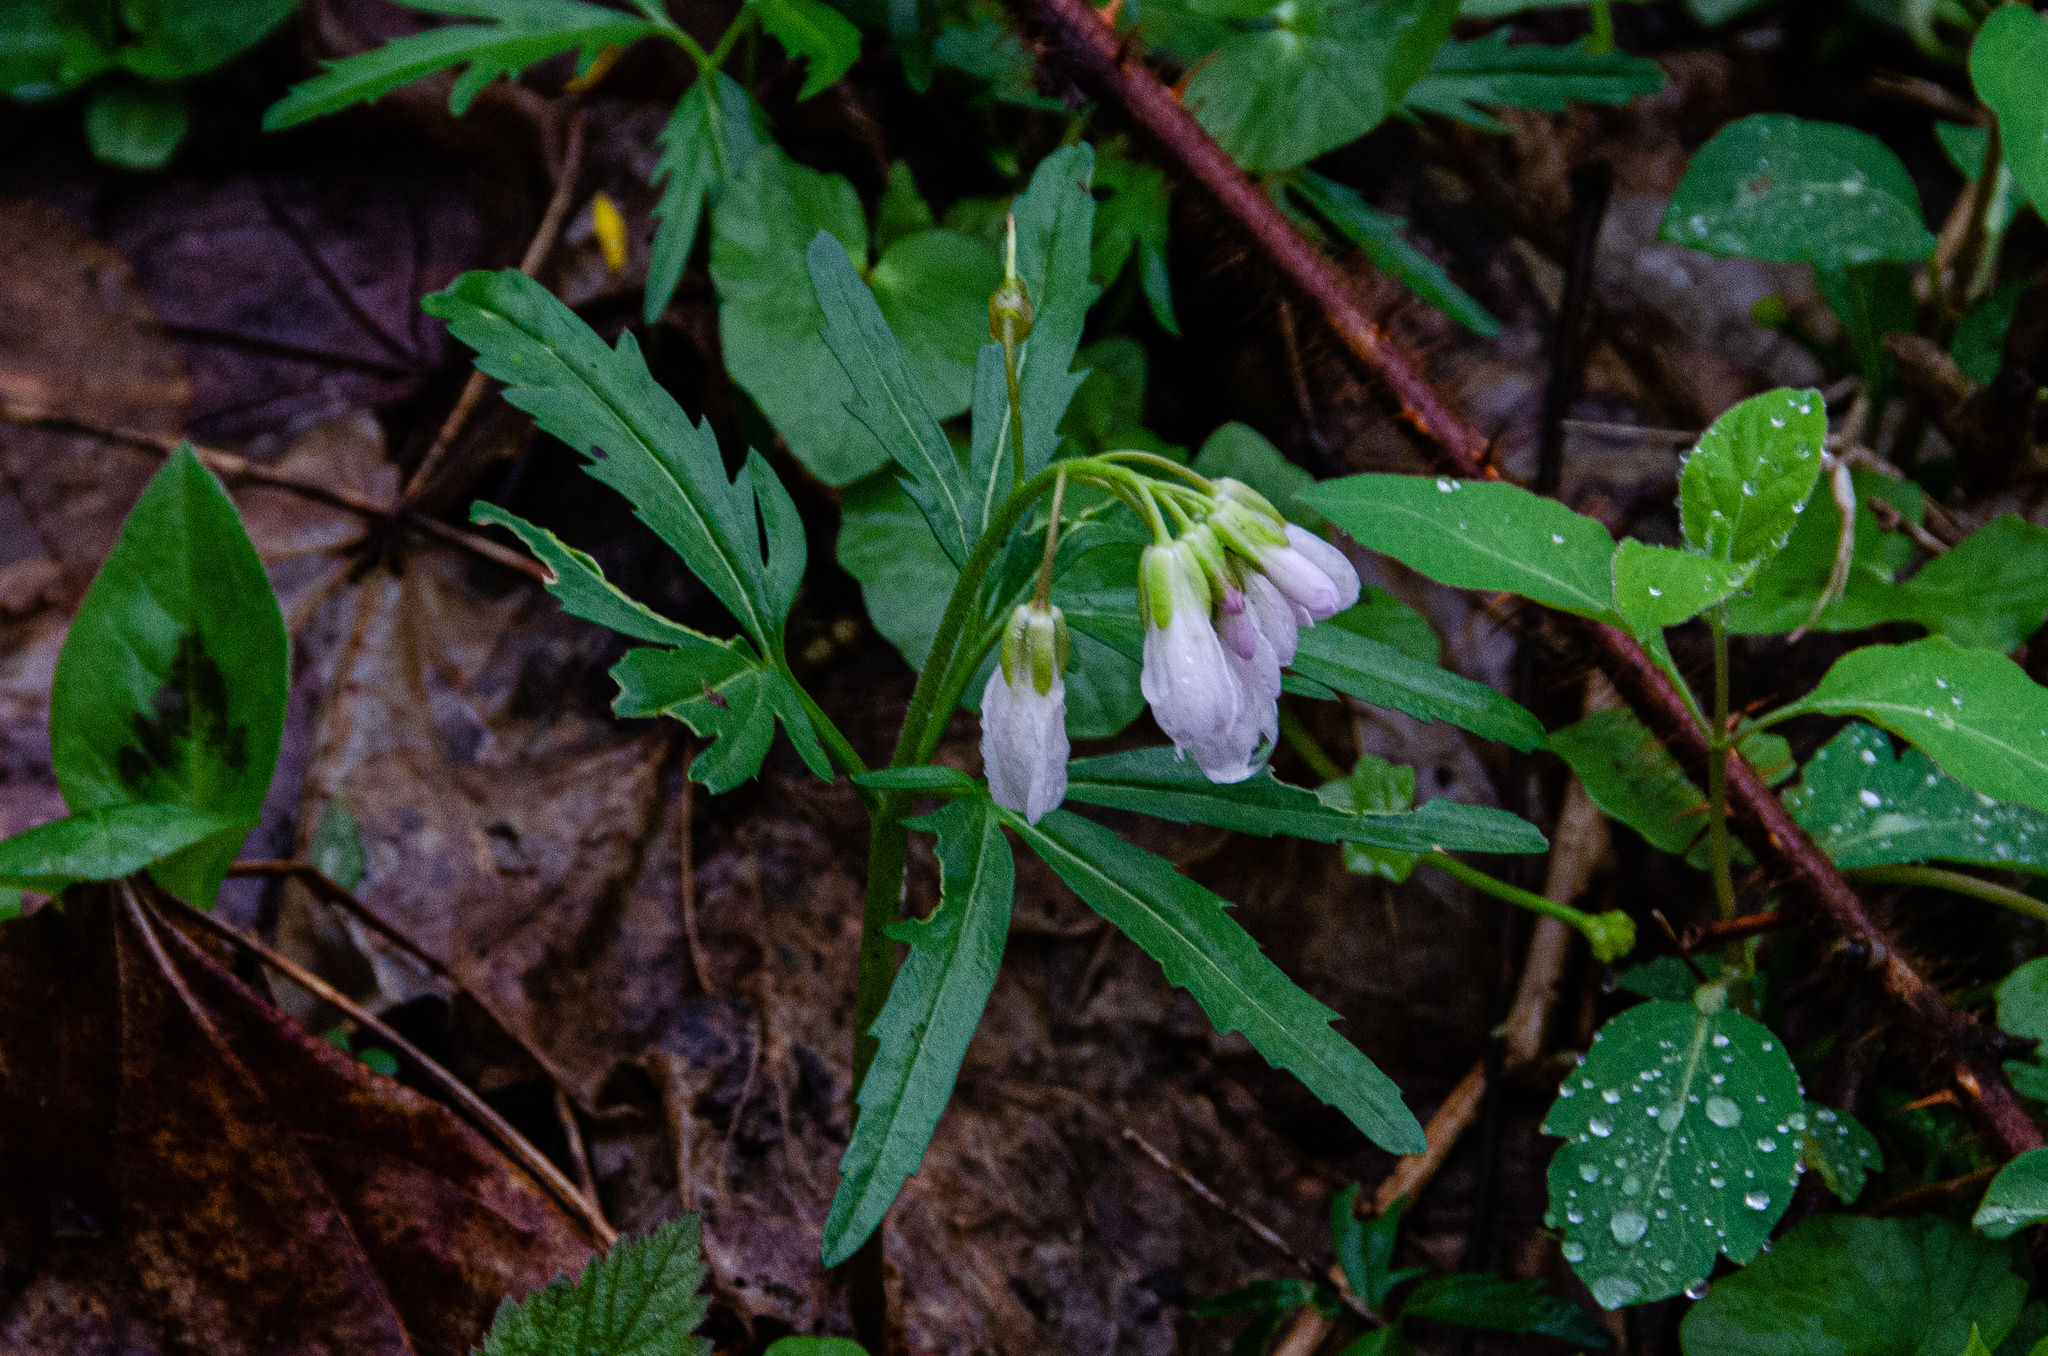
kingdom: Plantae
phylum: Tracheophyta
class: Magnoliopsida
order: Brassicales
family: Brassicaceae
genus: Cardamine
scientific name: Cardamine concatenata
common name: Cut-leaf toothcup
